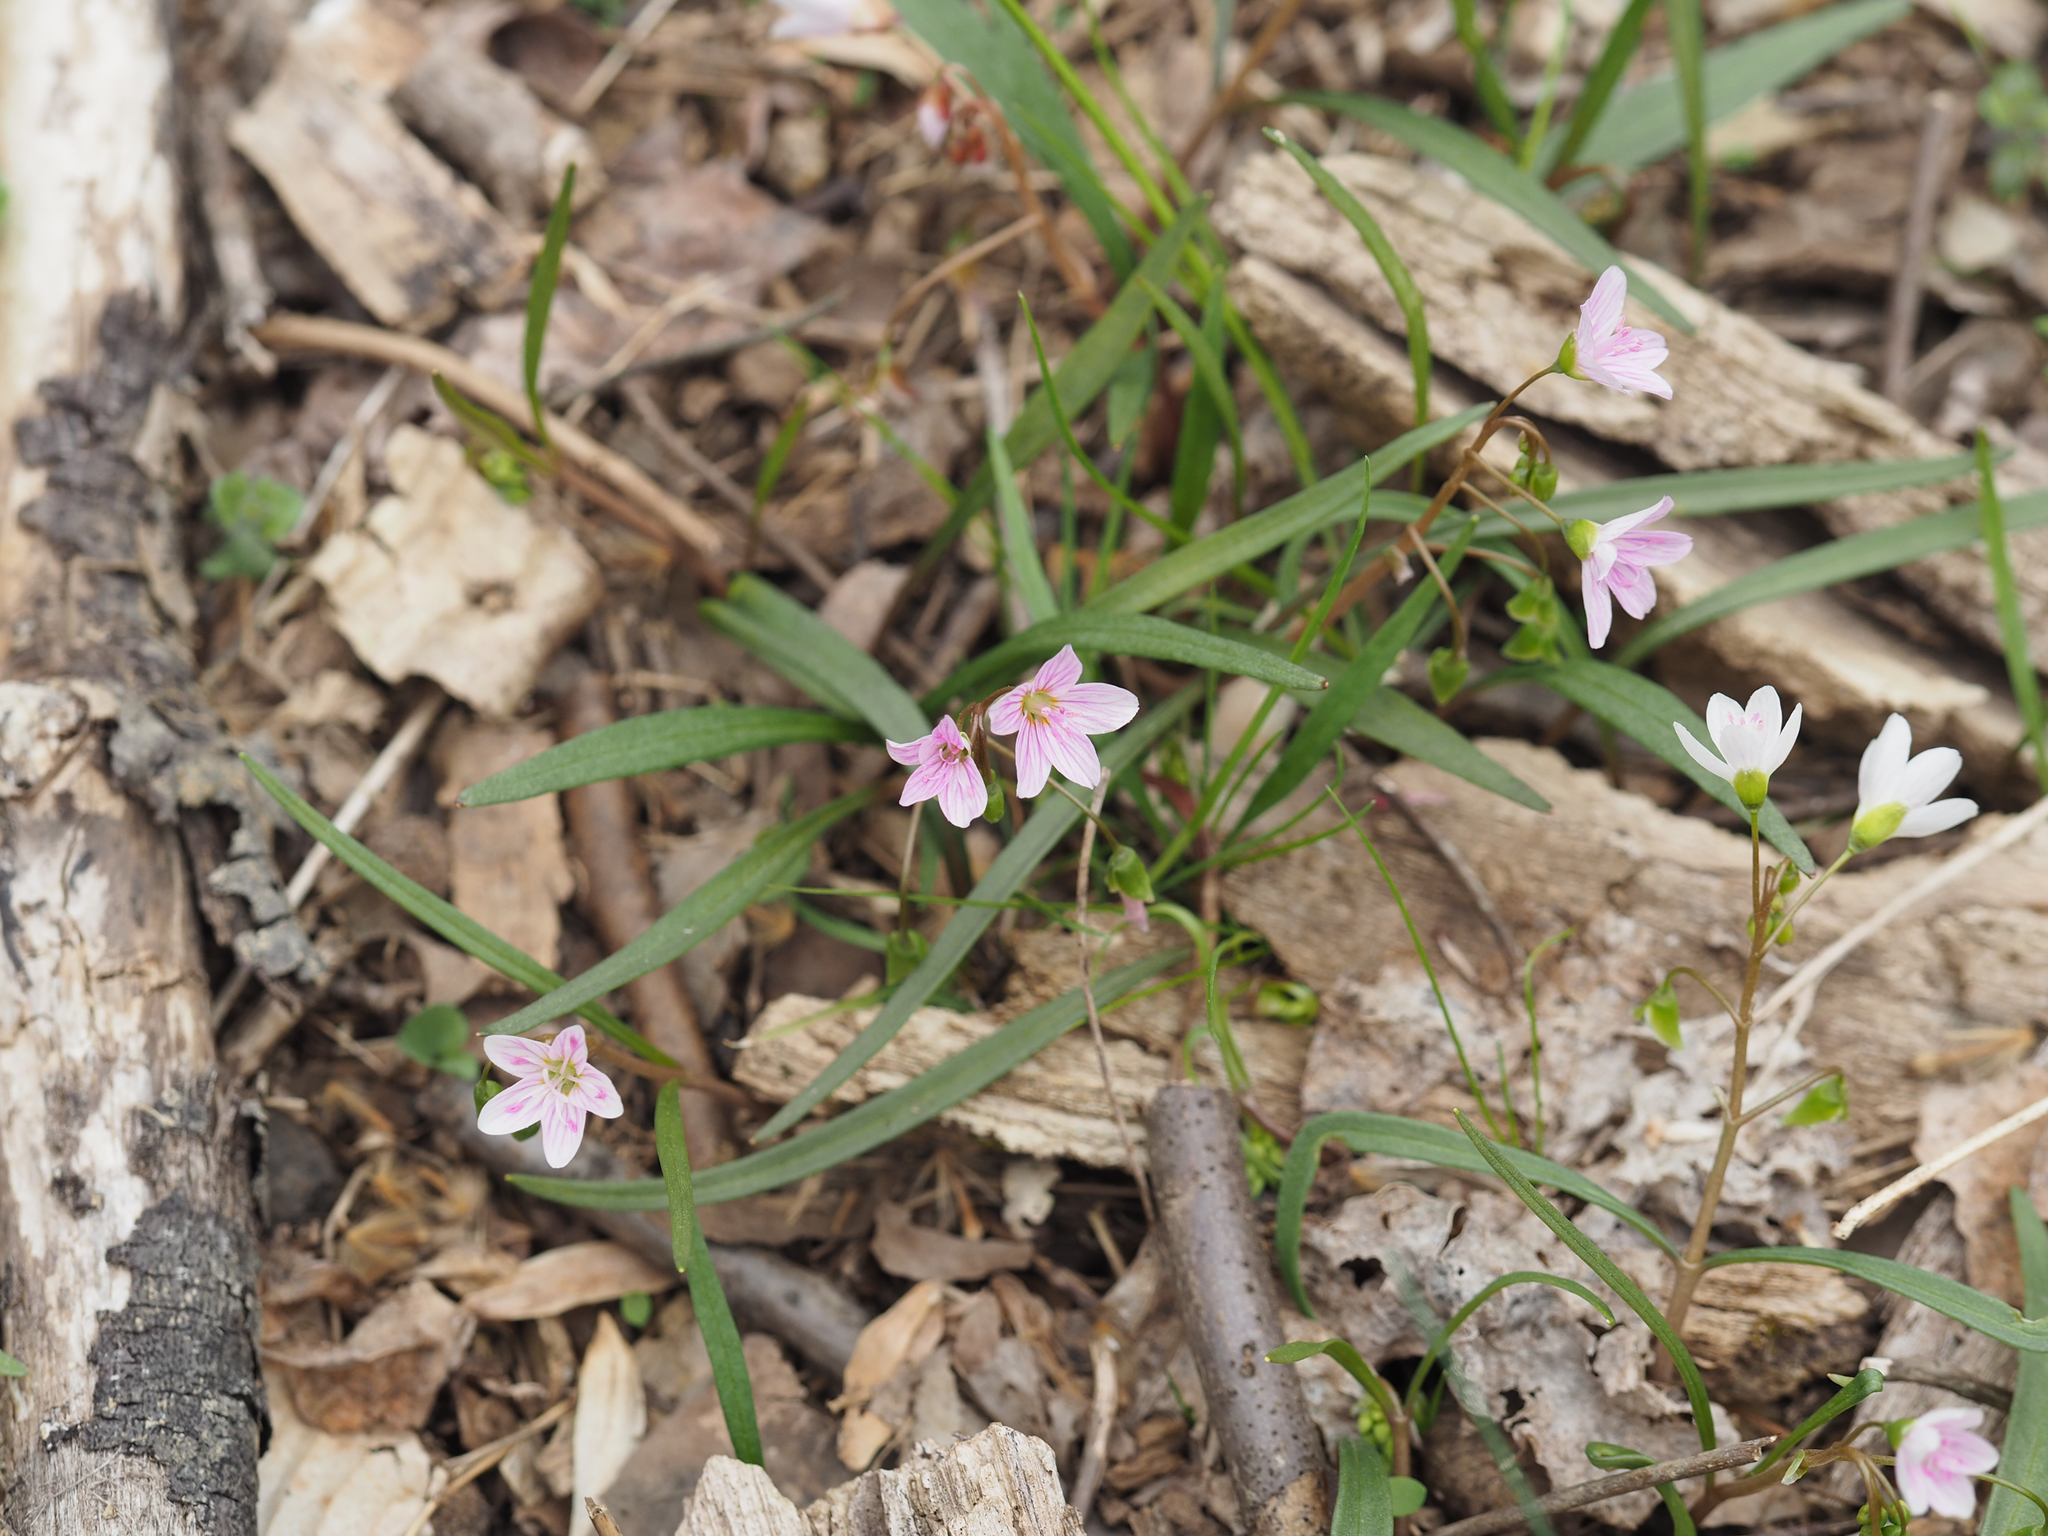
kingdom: Plantae
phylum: Tracheophyta
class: Magnoliopsida
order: Caryophyllales
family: Montiaceae
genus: Claytonia
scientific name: Claytonia virginica
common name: Virginia springbeauty
